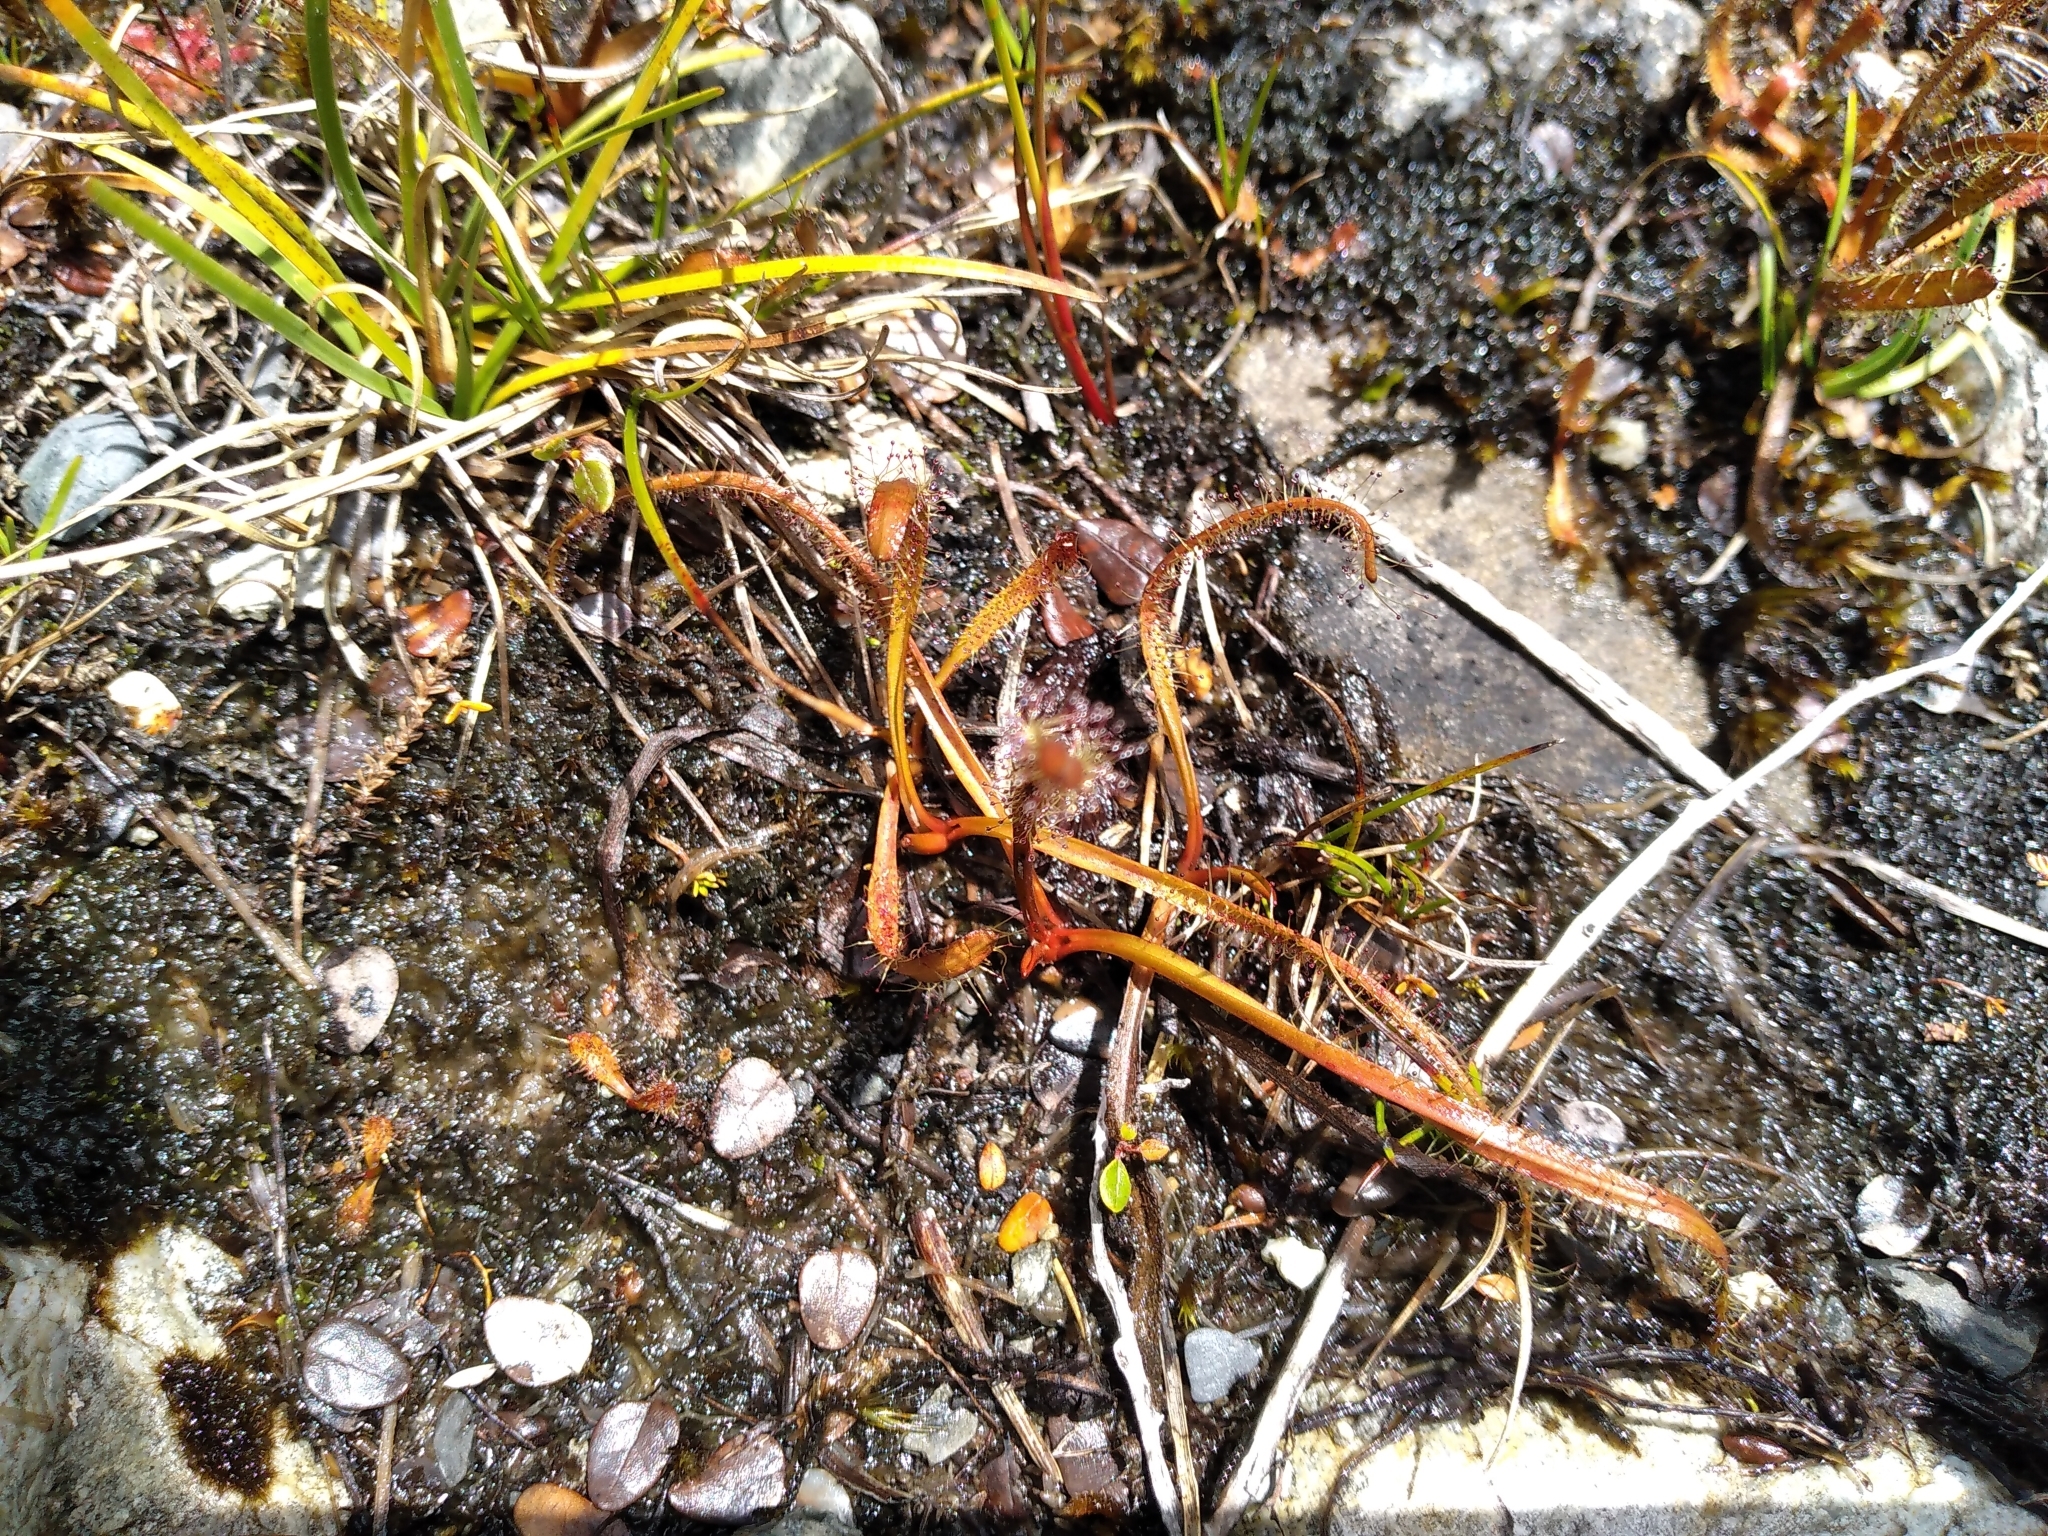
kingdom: Plantae
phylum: Tracheophyta
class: Magnoliopsida
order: Caryophyllales
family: Droseraceae
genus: Drosera
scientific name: Drosera arcturi
